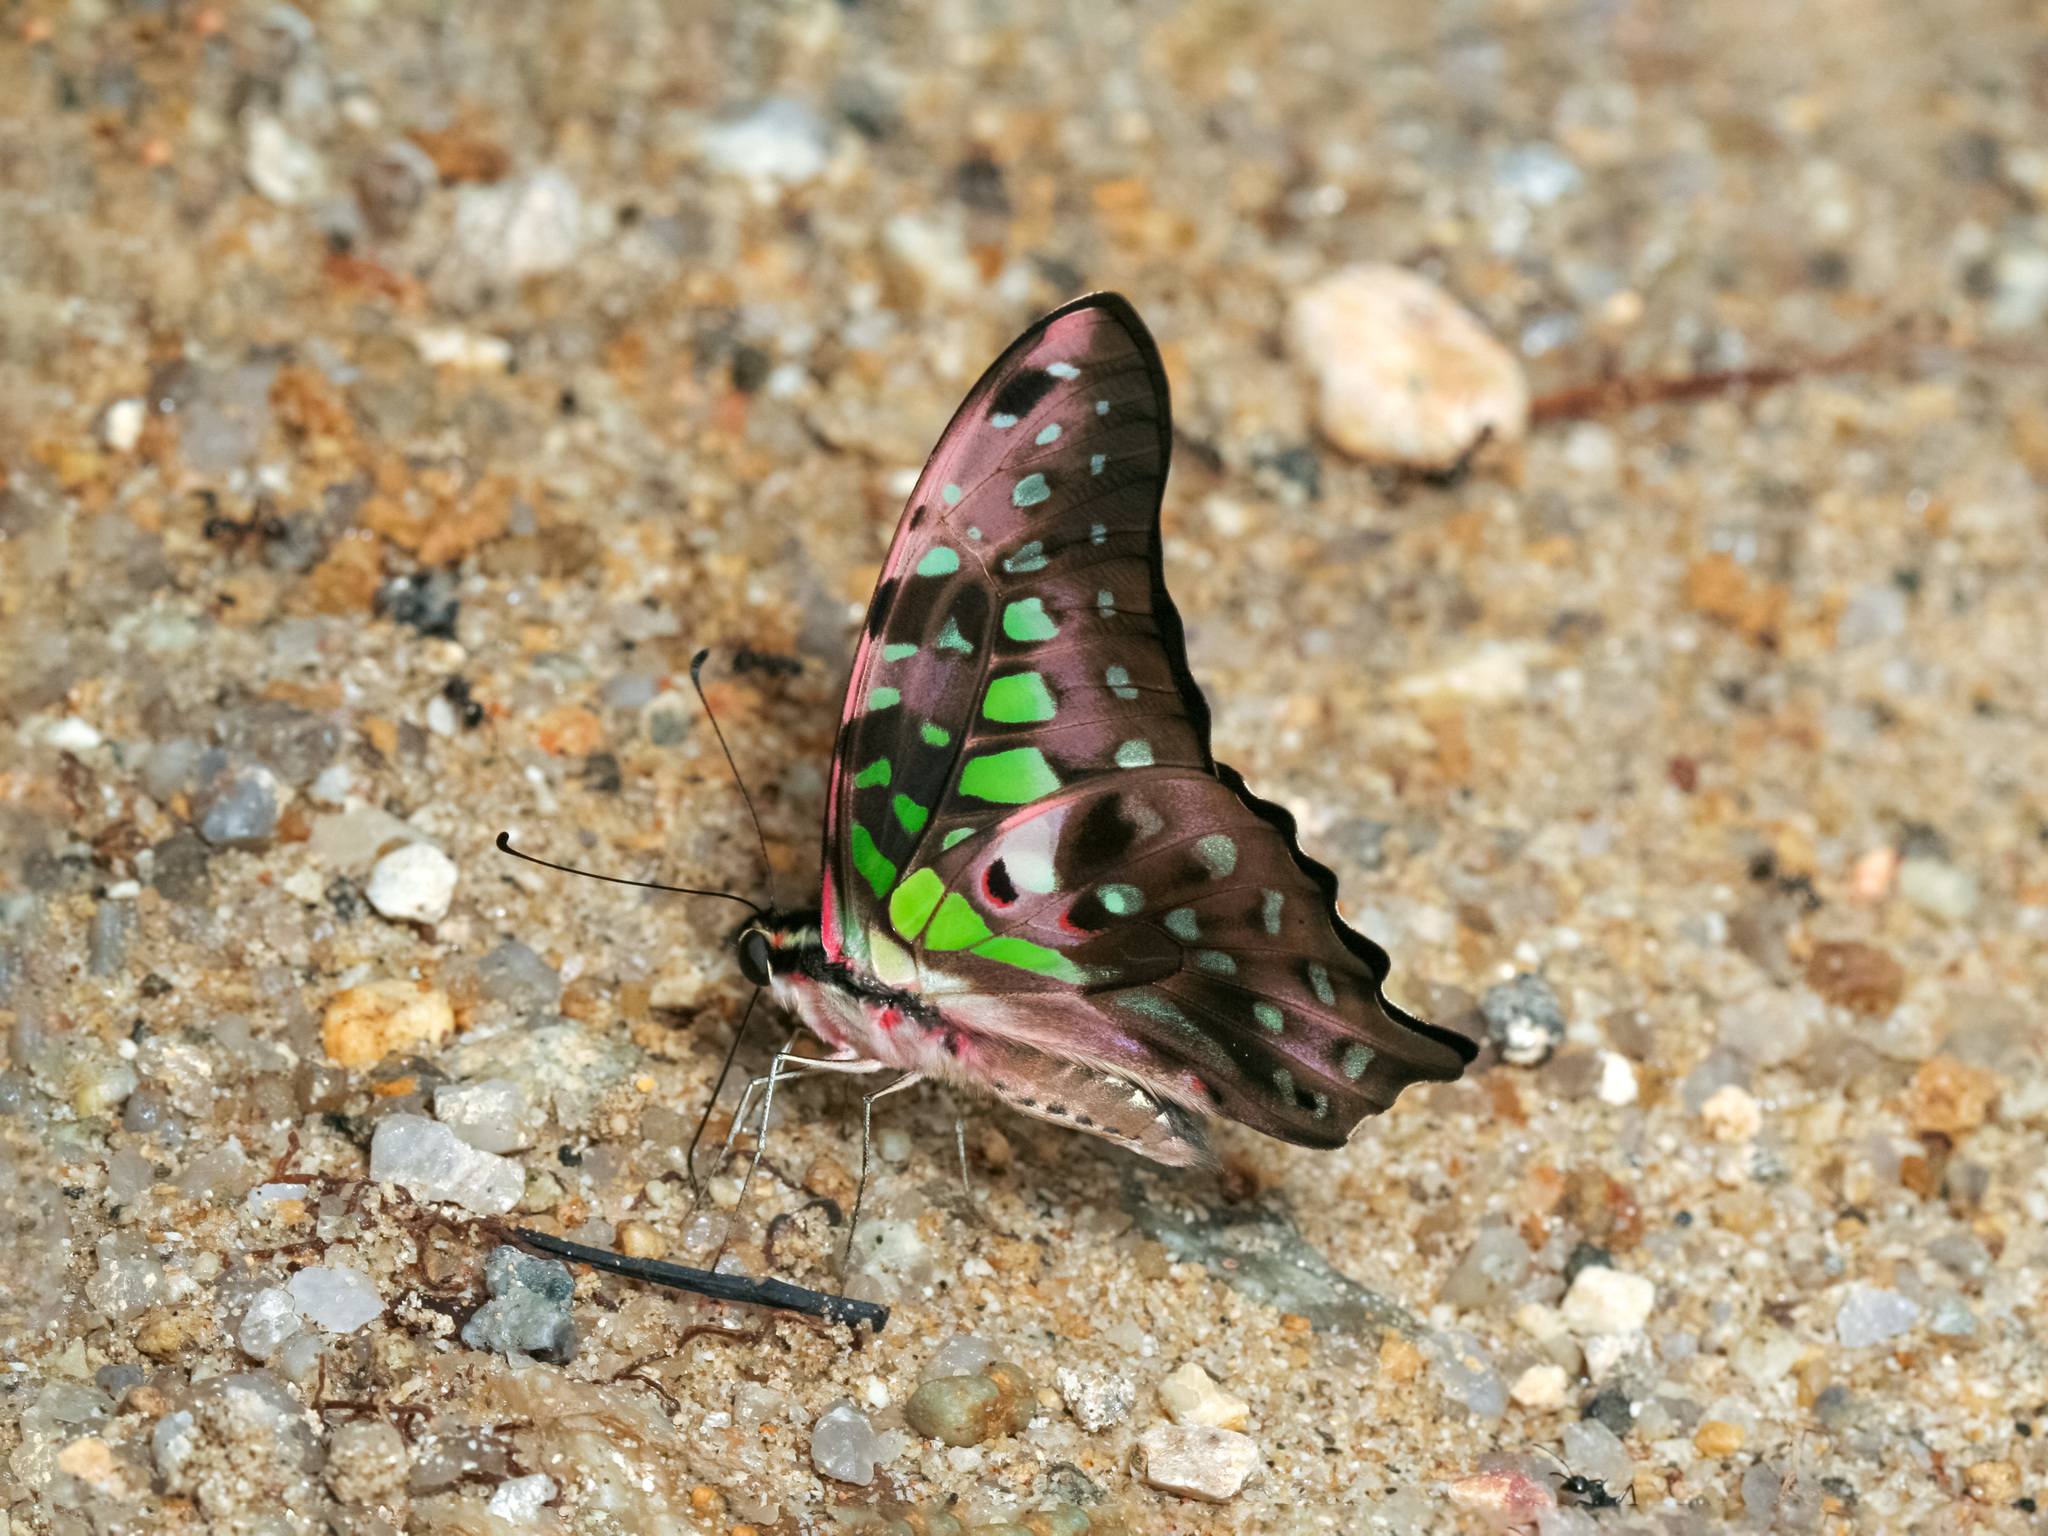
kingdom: Animalia
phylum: Arthropoda
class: Insecta
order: Lepidoptera
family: Papilionidae
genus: Graphium
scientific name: Graphium agamemnon
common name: Tailed jay
